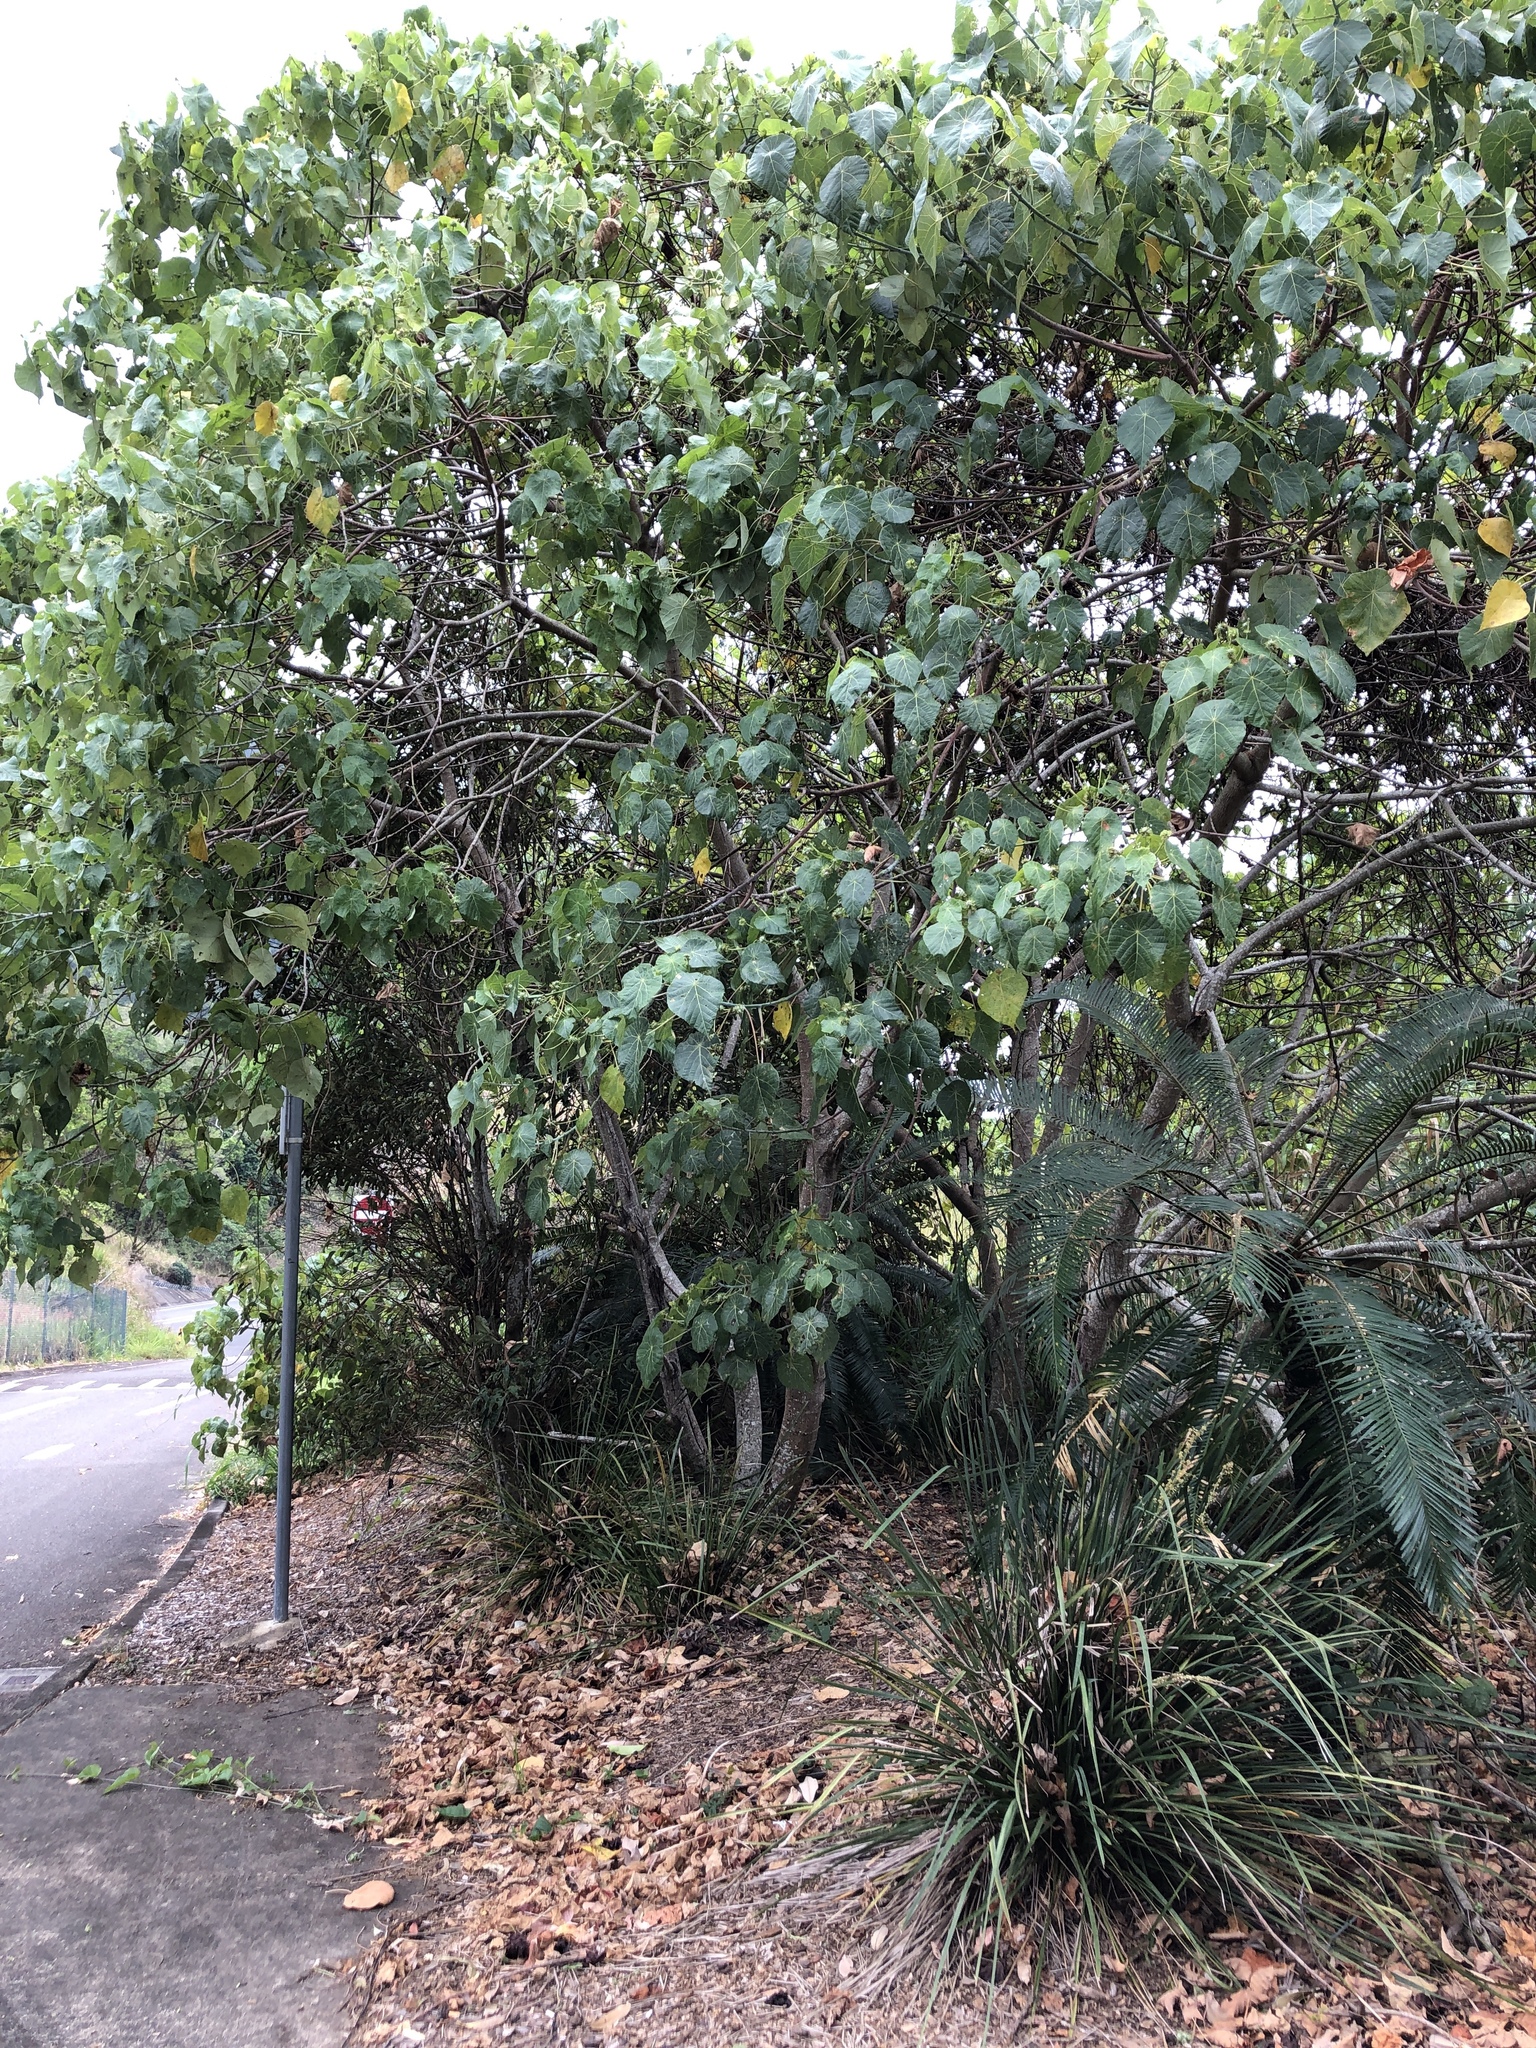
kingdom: Plantae
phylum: Tracheophyta
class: Magnoliopsida
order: Malpighiales
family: Euphorbiaceae
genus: Macaranga
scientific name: Macaranga tanarius
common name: Parasol leaf tree
